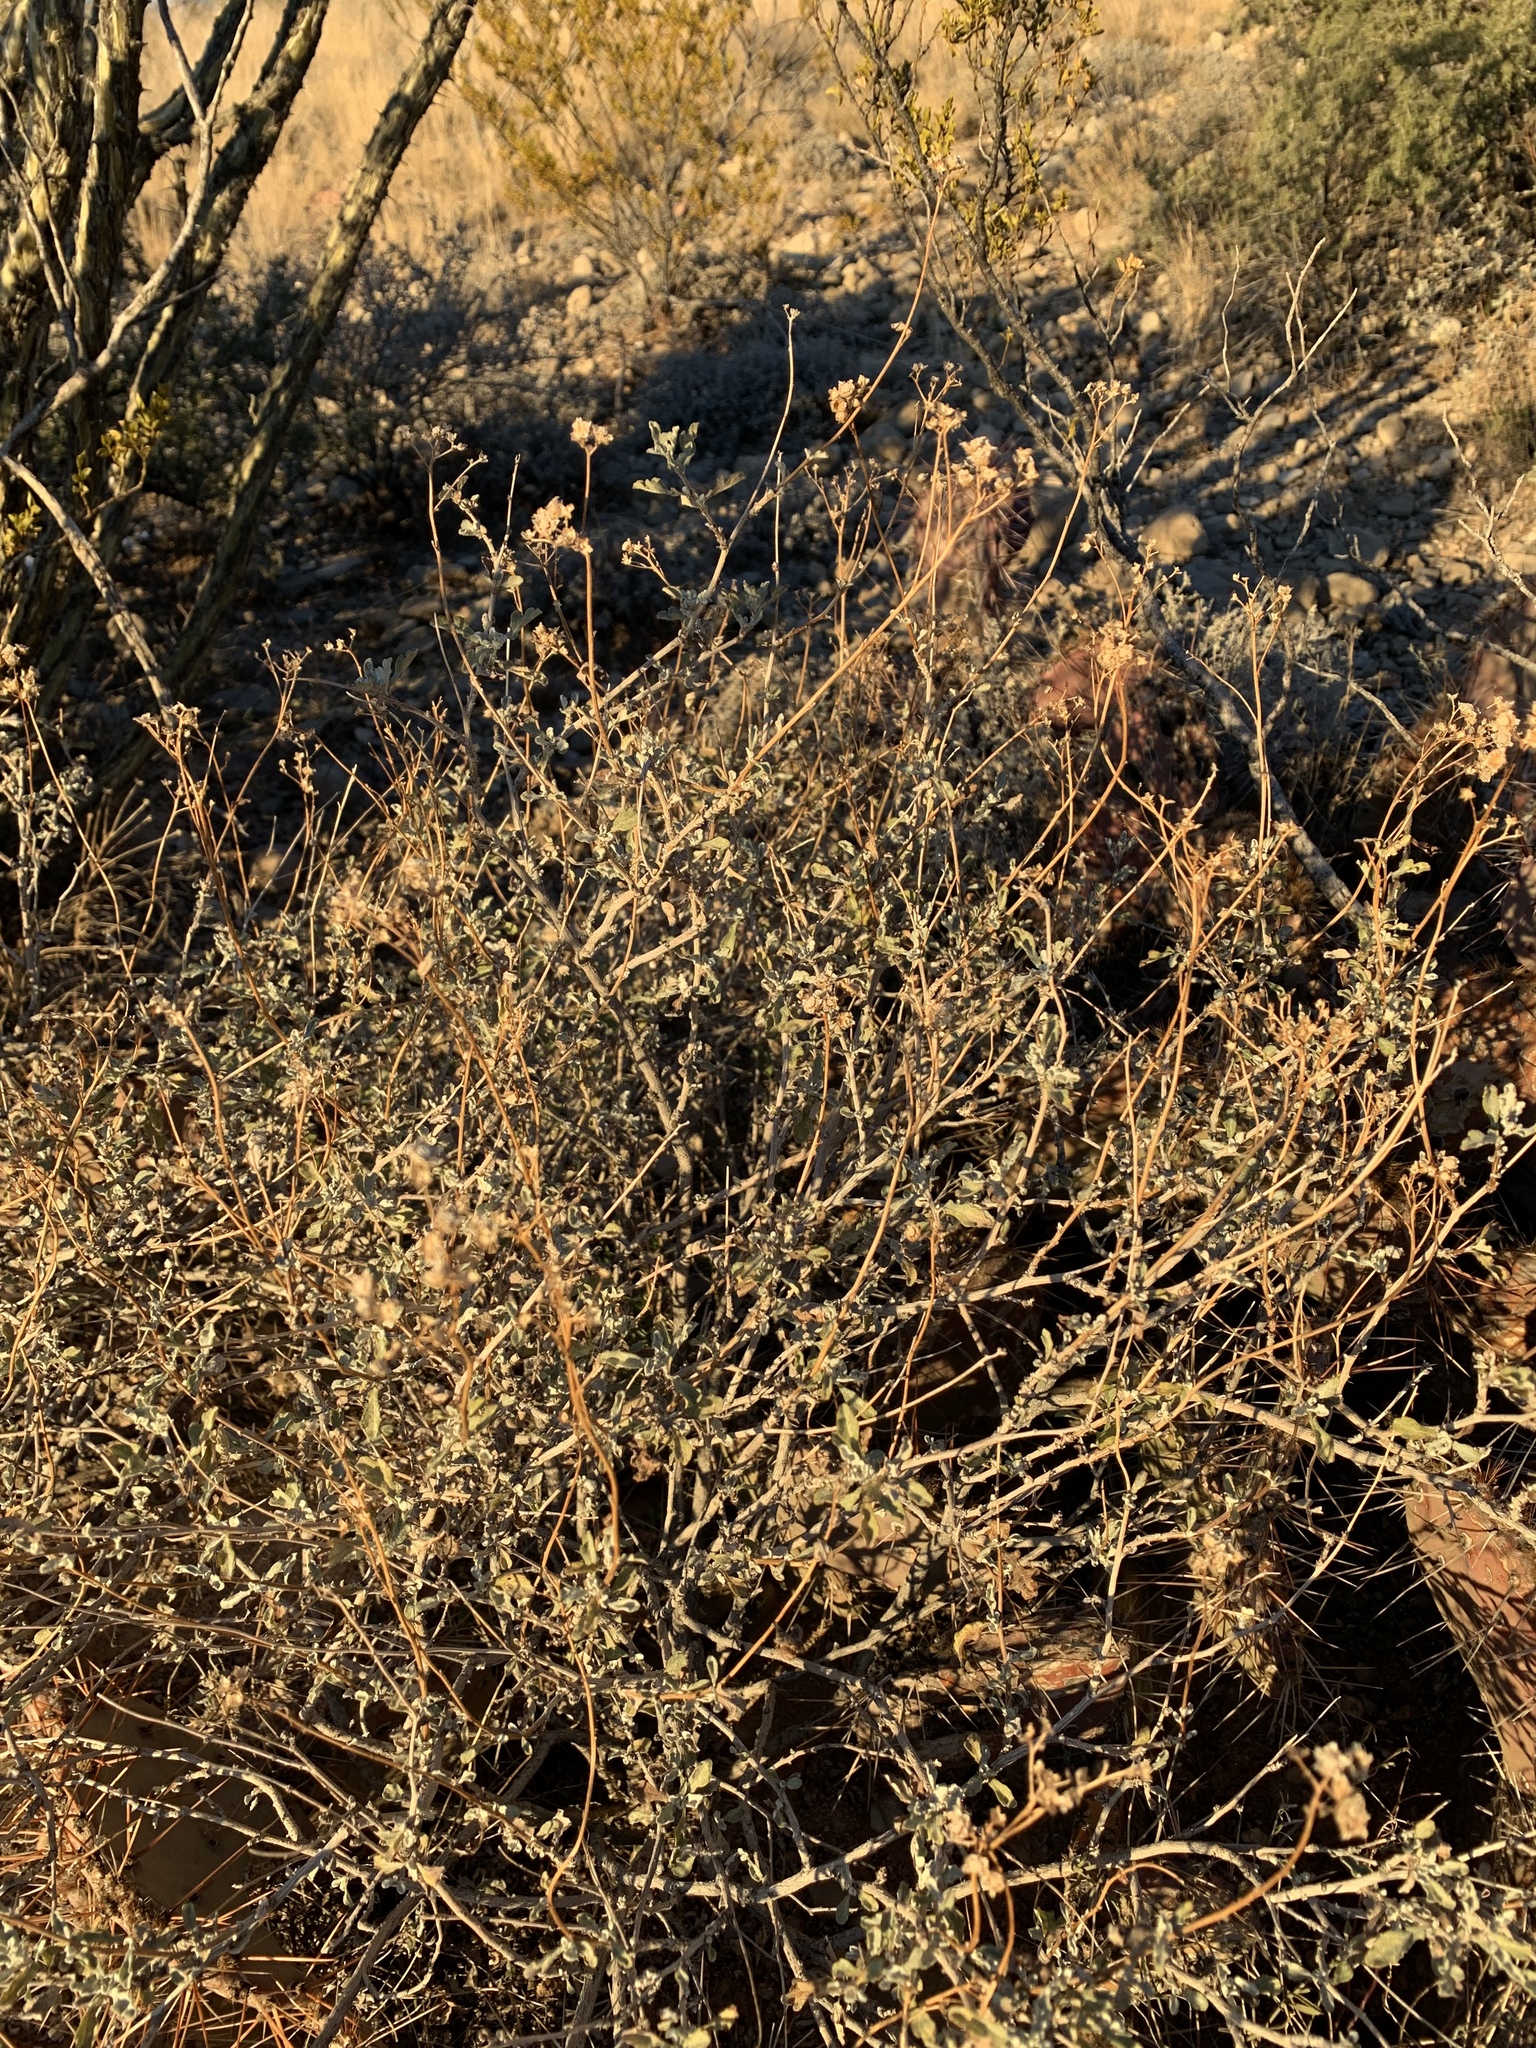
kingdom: Plantae
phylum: Tracheophyta
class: Magnoliopsida
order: Asterales
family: Asteraceae
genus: Parthenium
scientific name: Parthenium incanum
